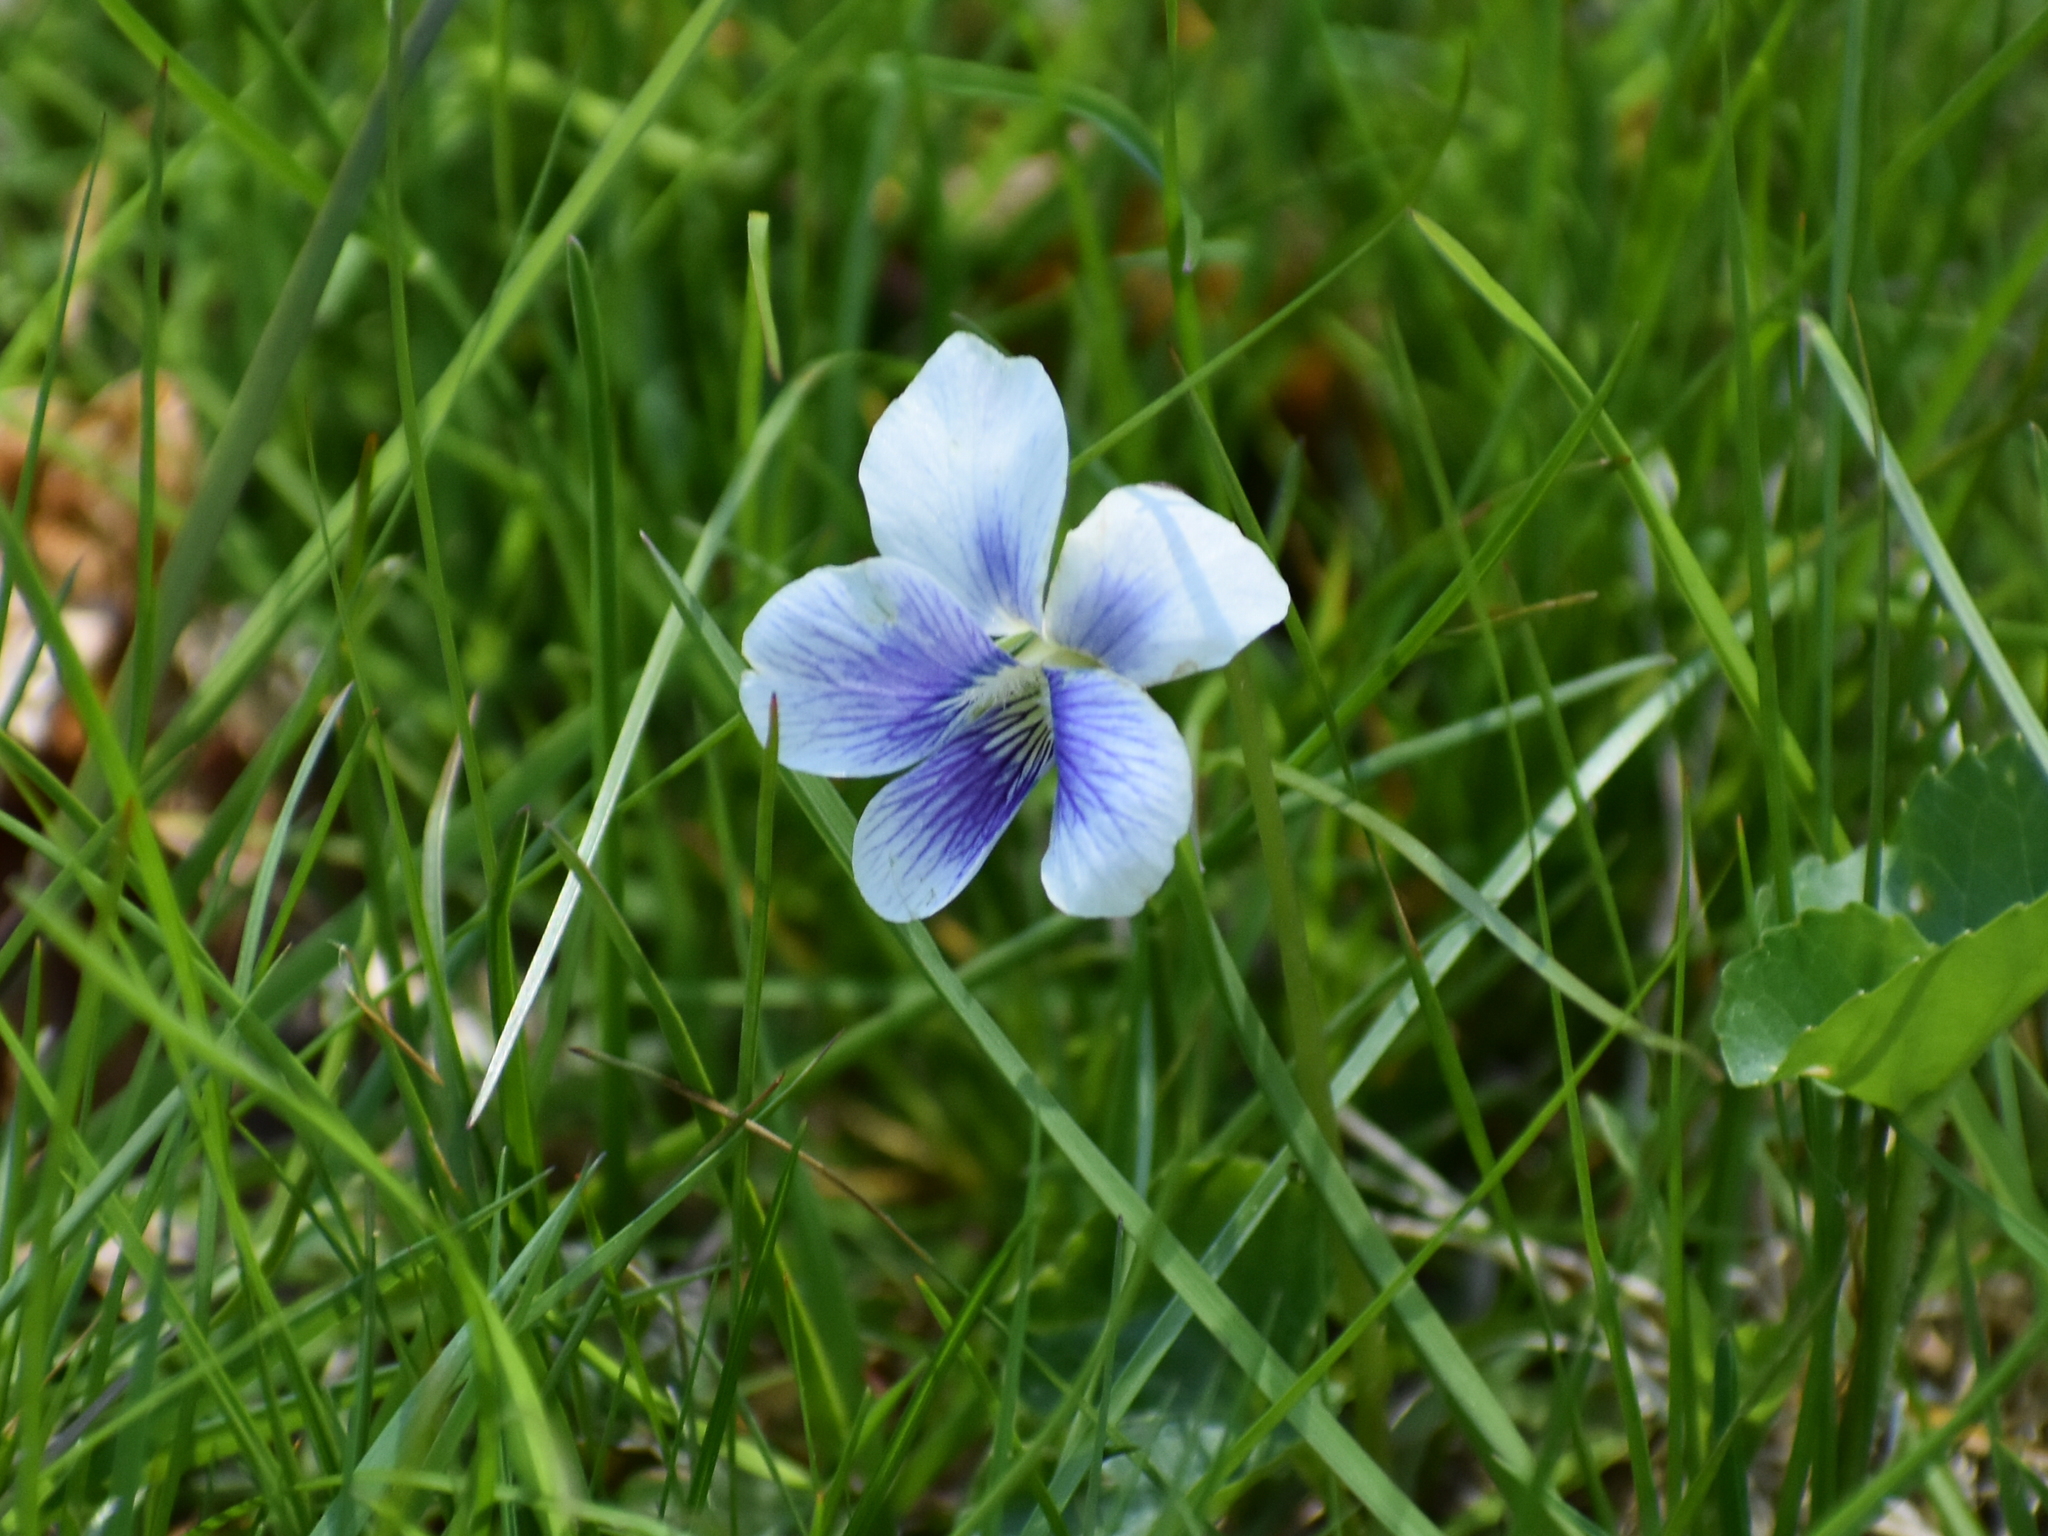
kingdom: Plantae
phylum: Tracheophyta
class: Magnoliopsida
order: Malpighiales
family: Violaceae
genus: Viola
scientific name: Viola sororia
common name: Dooryard violet
